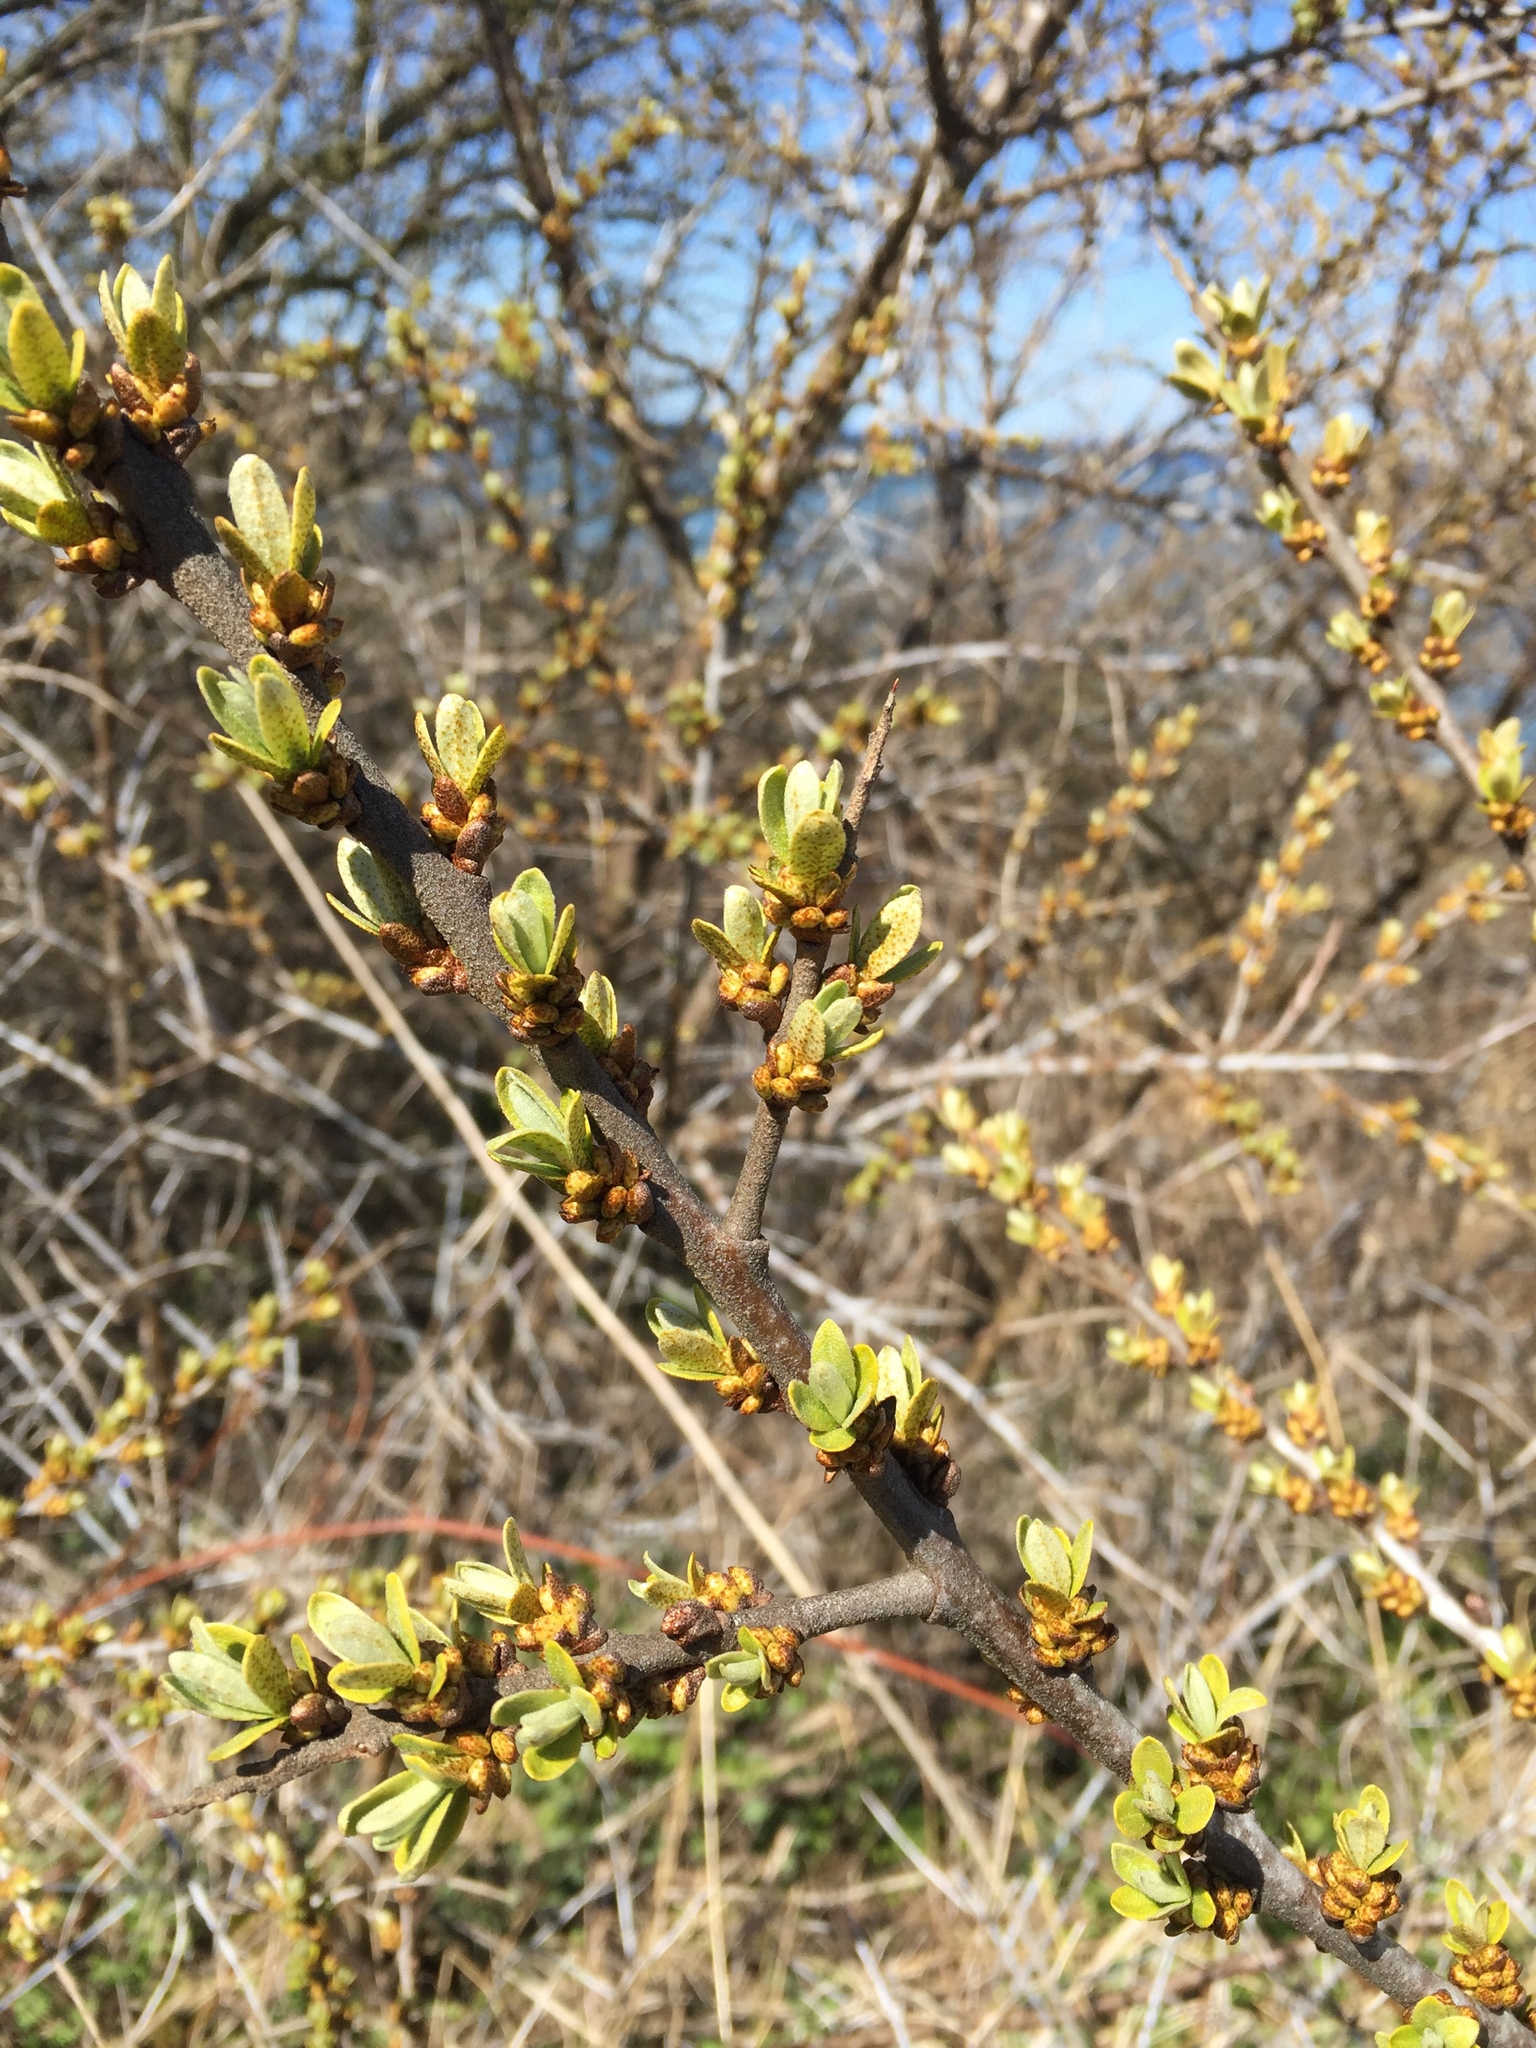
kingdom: Plantae
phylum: Tracheophyta
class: Magnoliopsida
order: Rosales
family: Elaeagnaceae
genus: Hippophae
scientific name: Hippophae rhamnoides
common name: Sea-buckthorn
